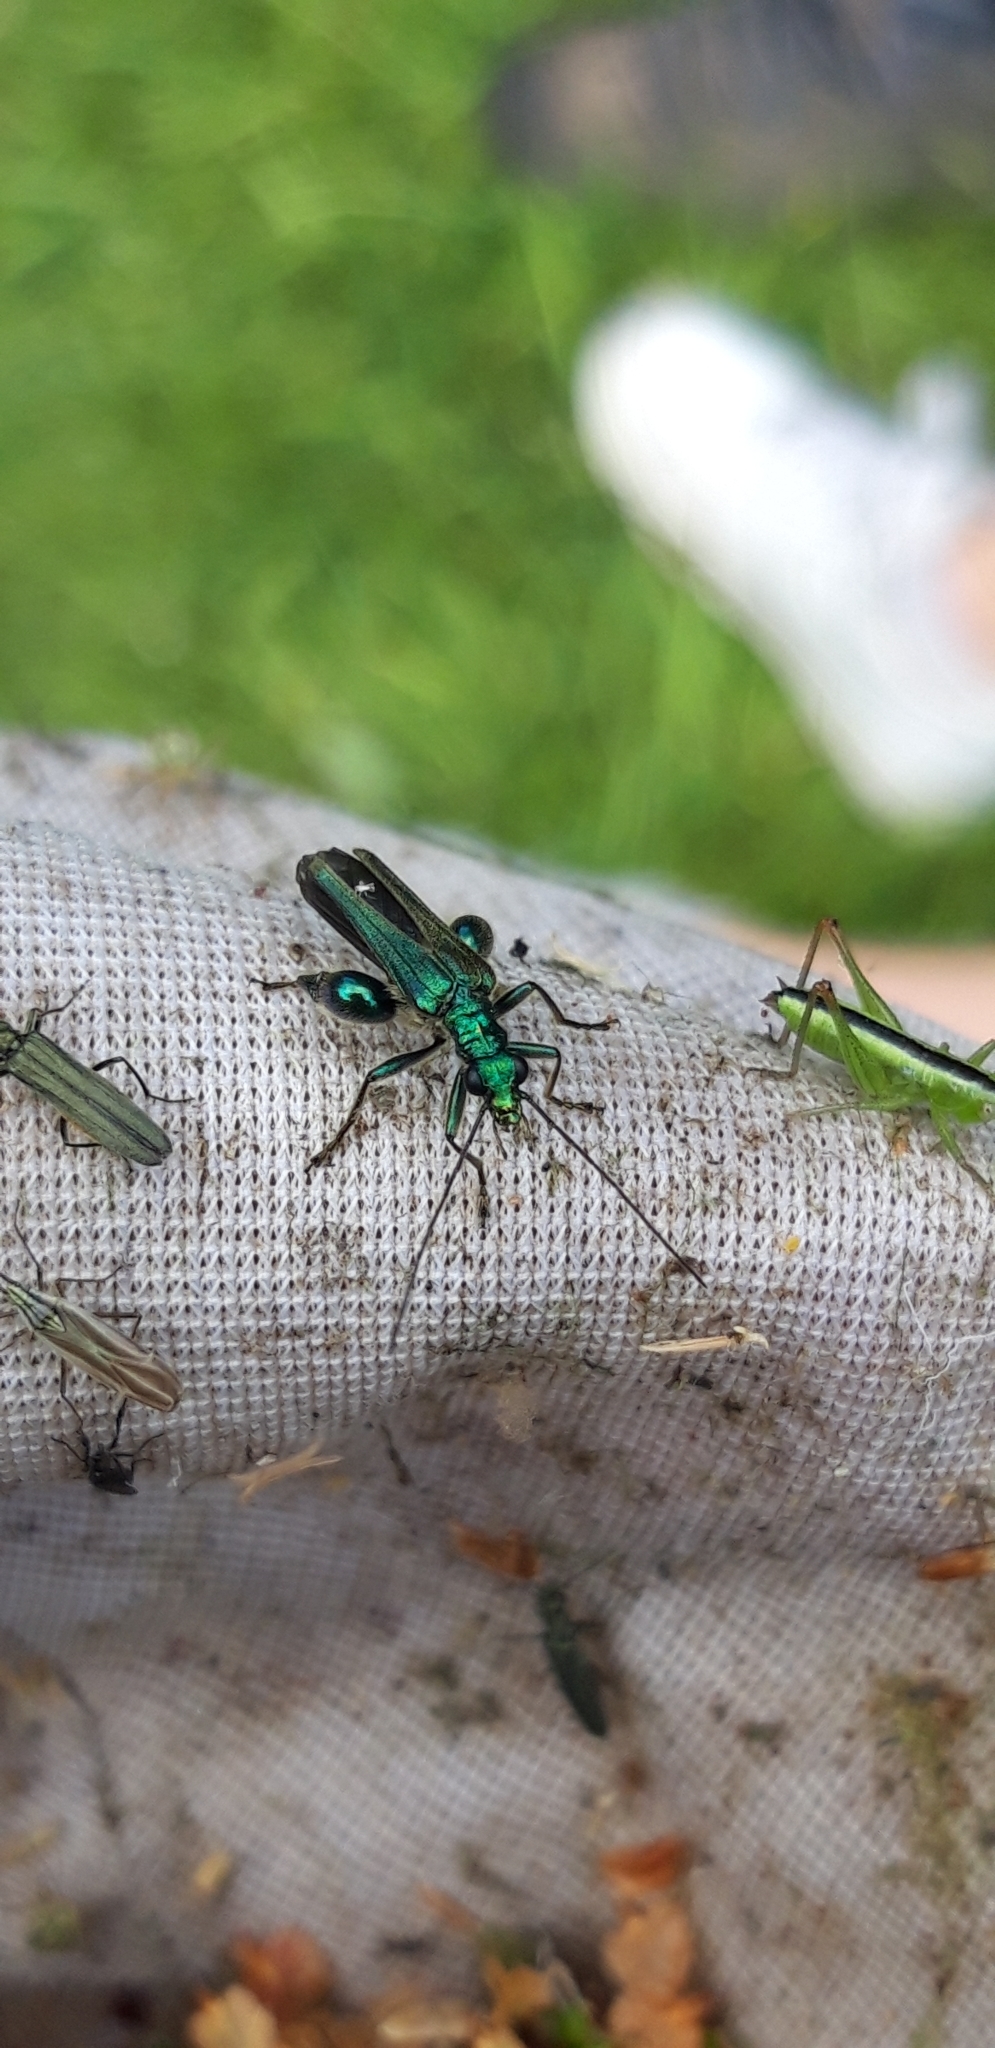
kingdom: Animalia
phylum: Arthropoda
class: Insecta
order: Coleoptera
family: Oedemeridae
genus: Oedemera
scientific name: Oedemera nobilis
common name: Swollen-thighed beetle
